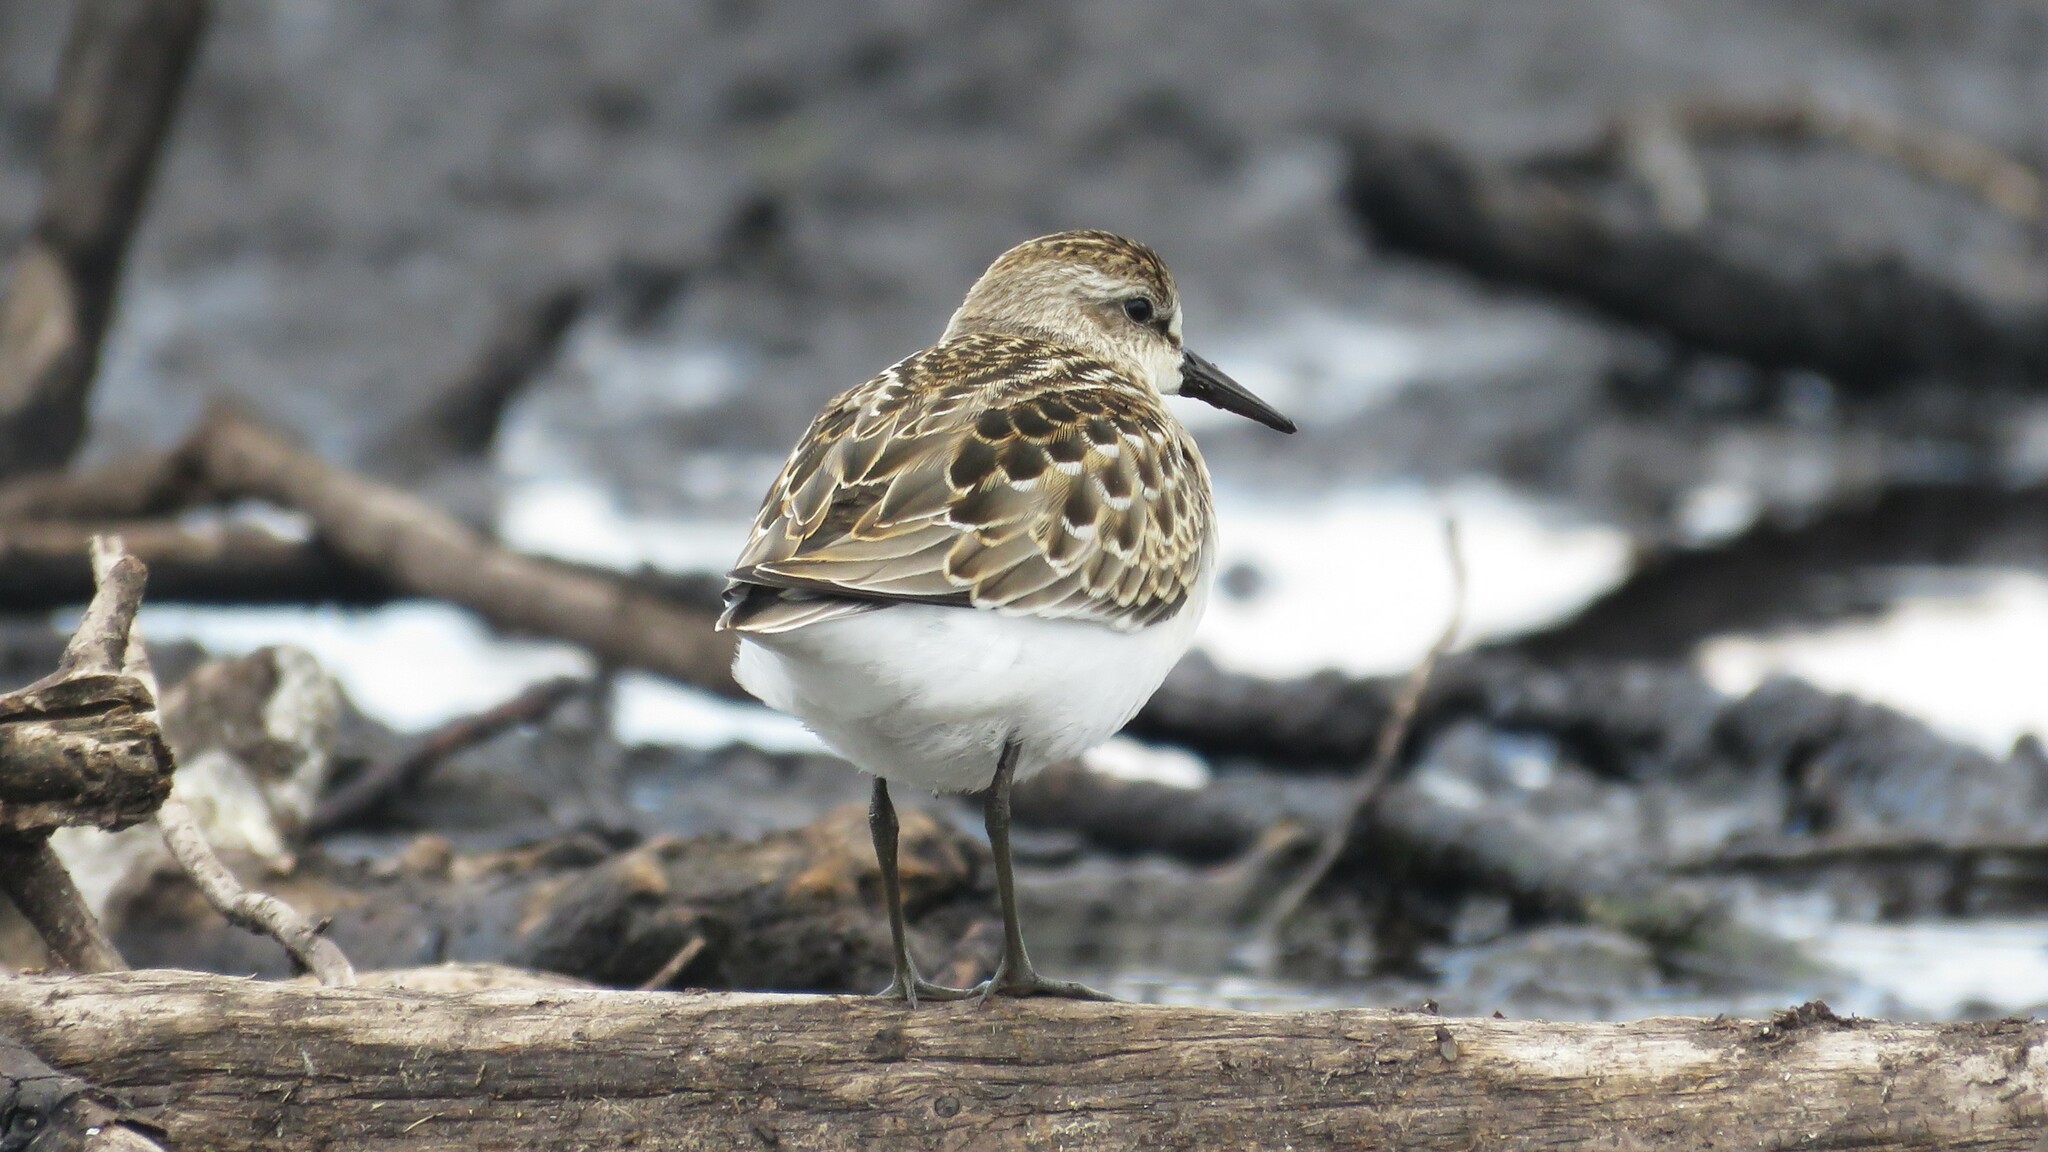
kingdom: Animalia
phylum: Chordata
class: Aves
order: Charadriiformes
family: Scolopacidae
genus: Calidris
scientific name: Calidris pusilla
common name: Semipalmated sandpiper
